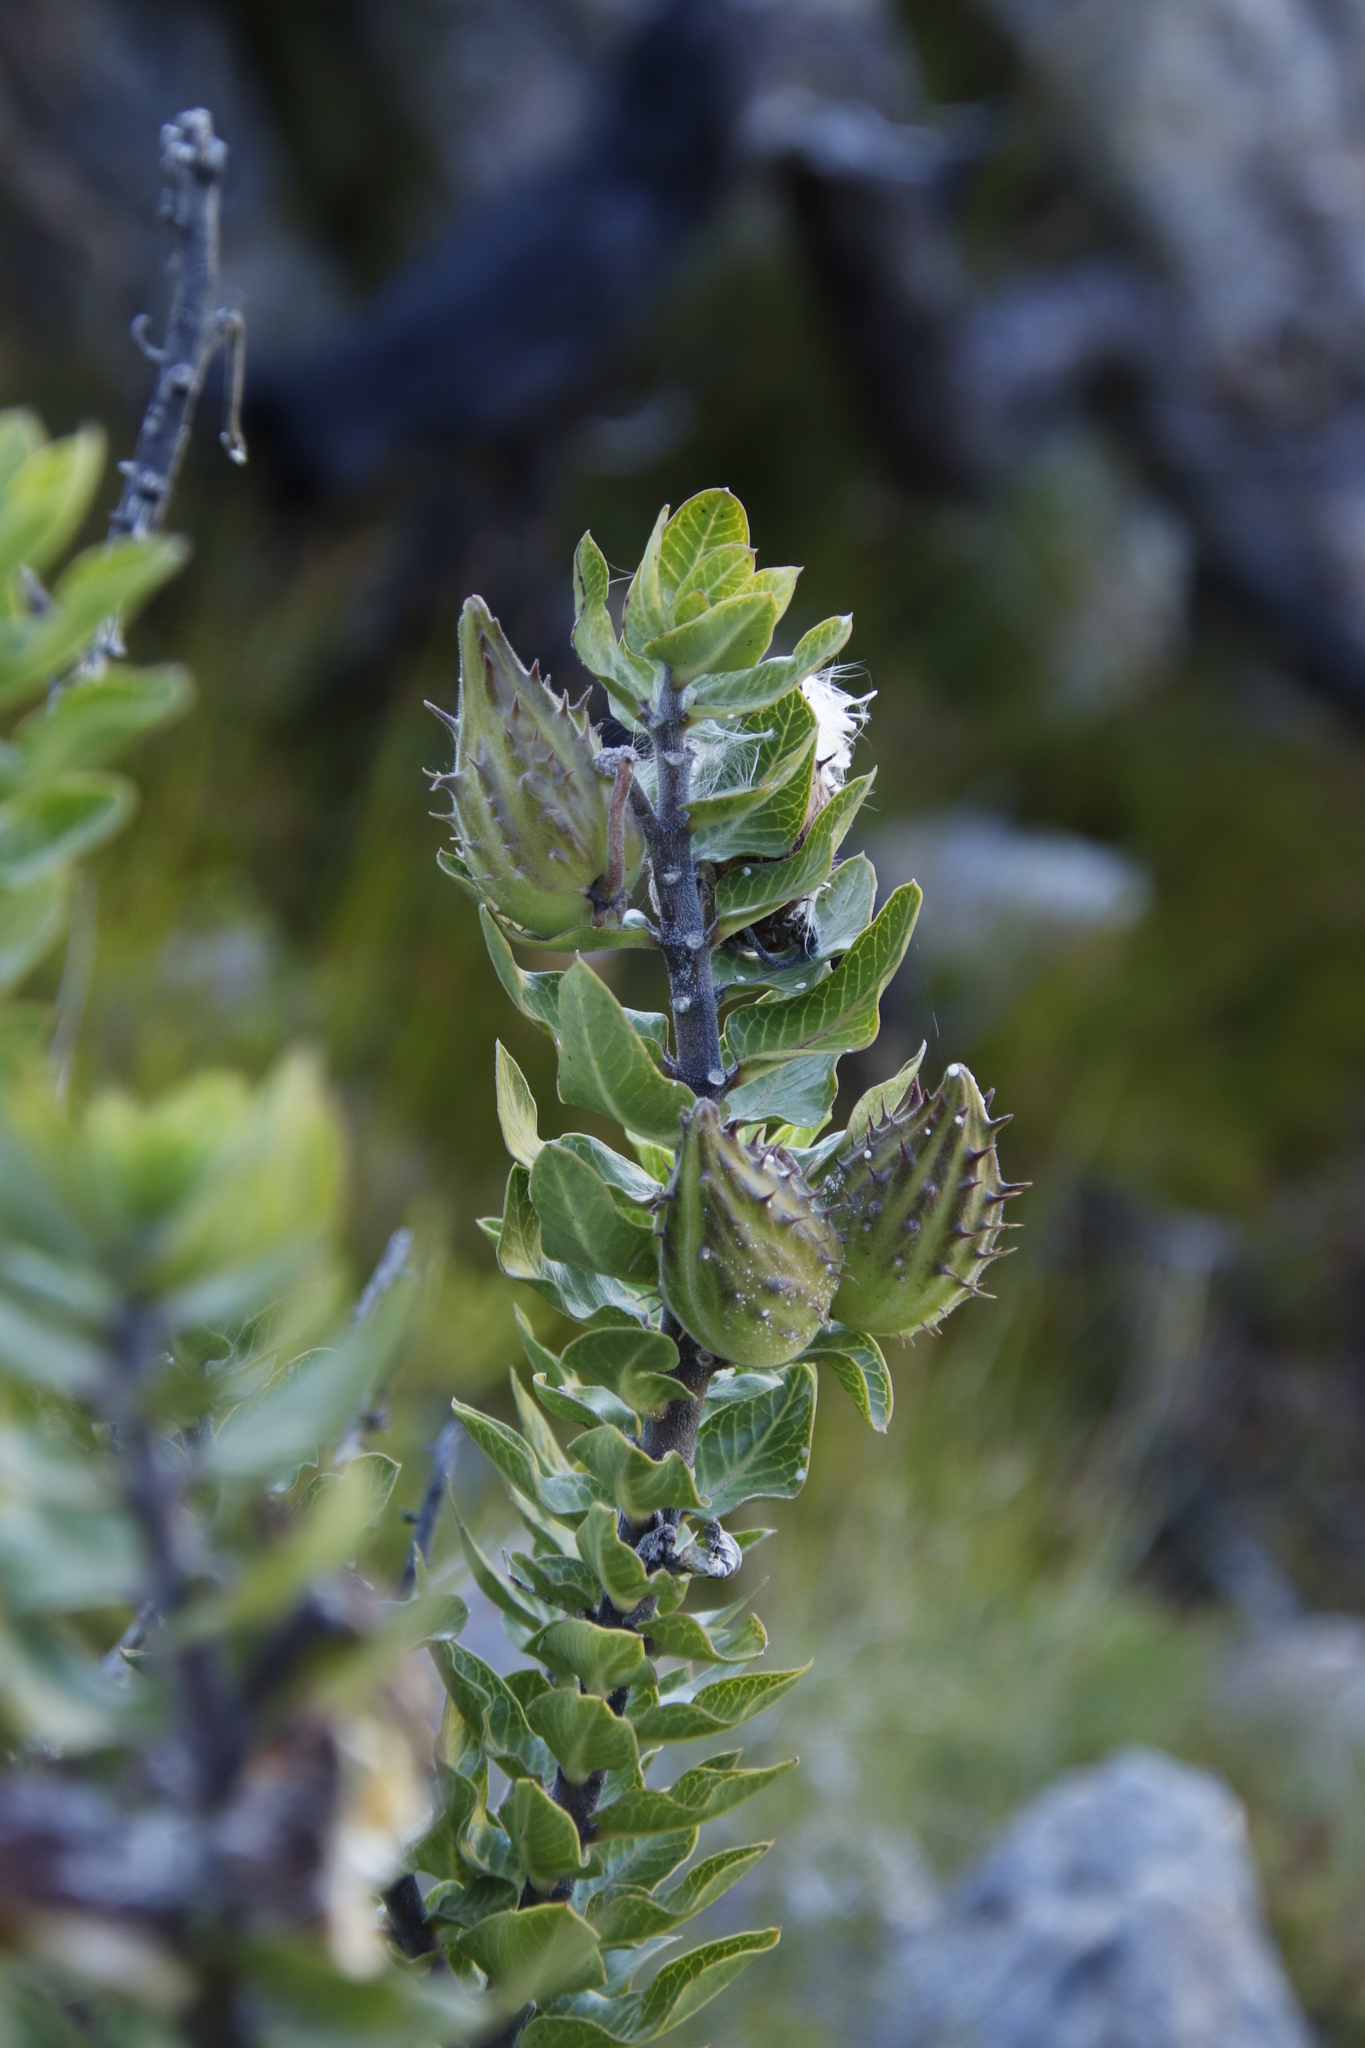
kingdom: Plantae
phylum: Tracheophyta
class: Magnoliopsida
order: Gentianales
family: Apocynaceae
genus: Gomphocarpus
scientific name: Gomphocarpus cancellatus
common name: Wild cotton
